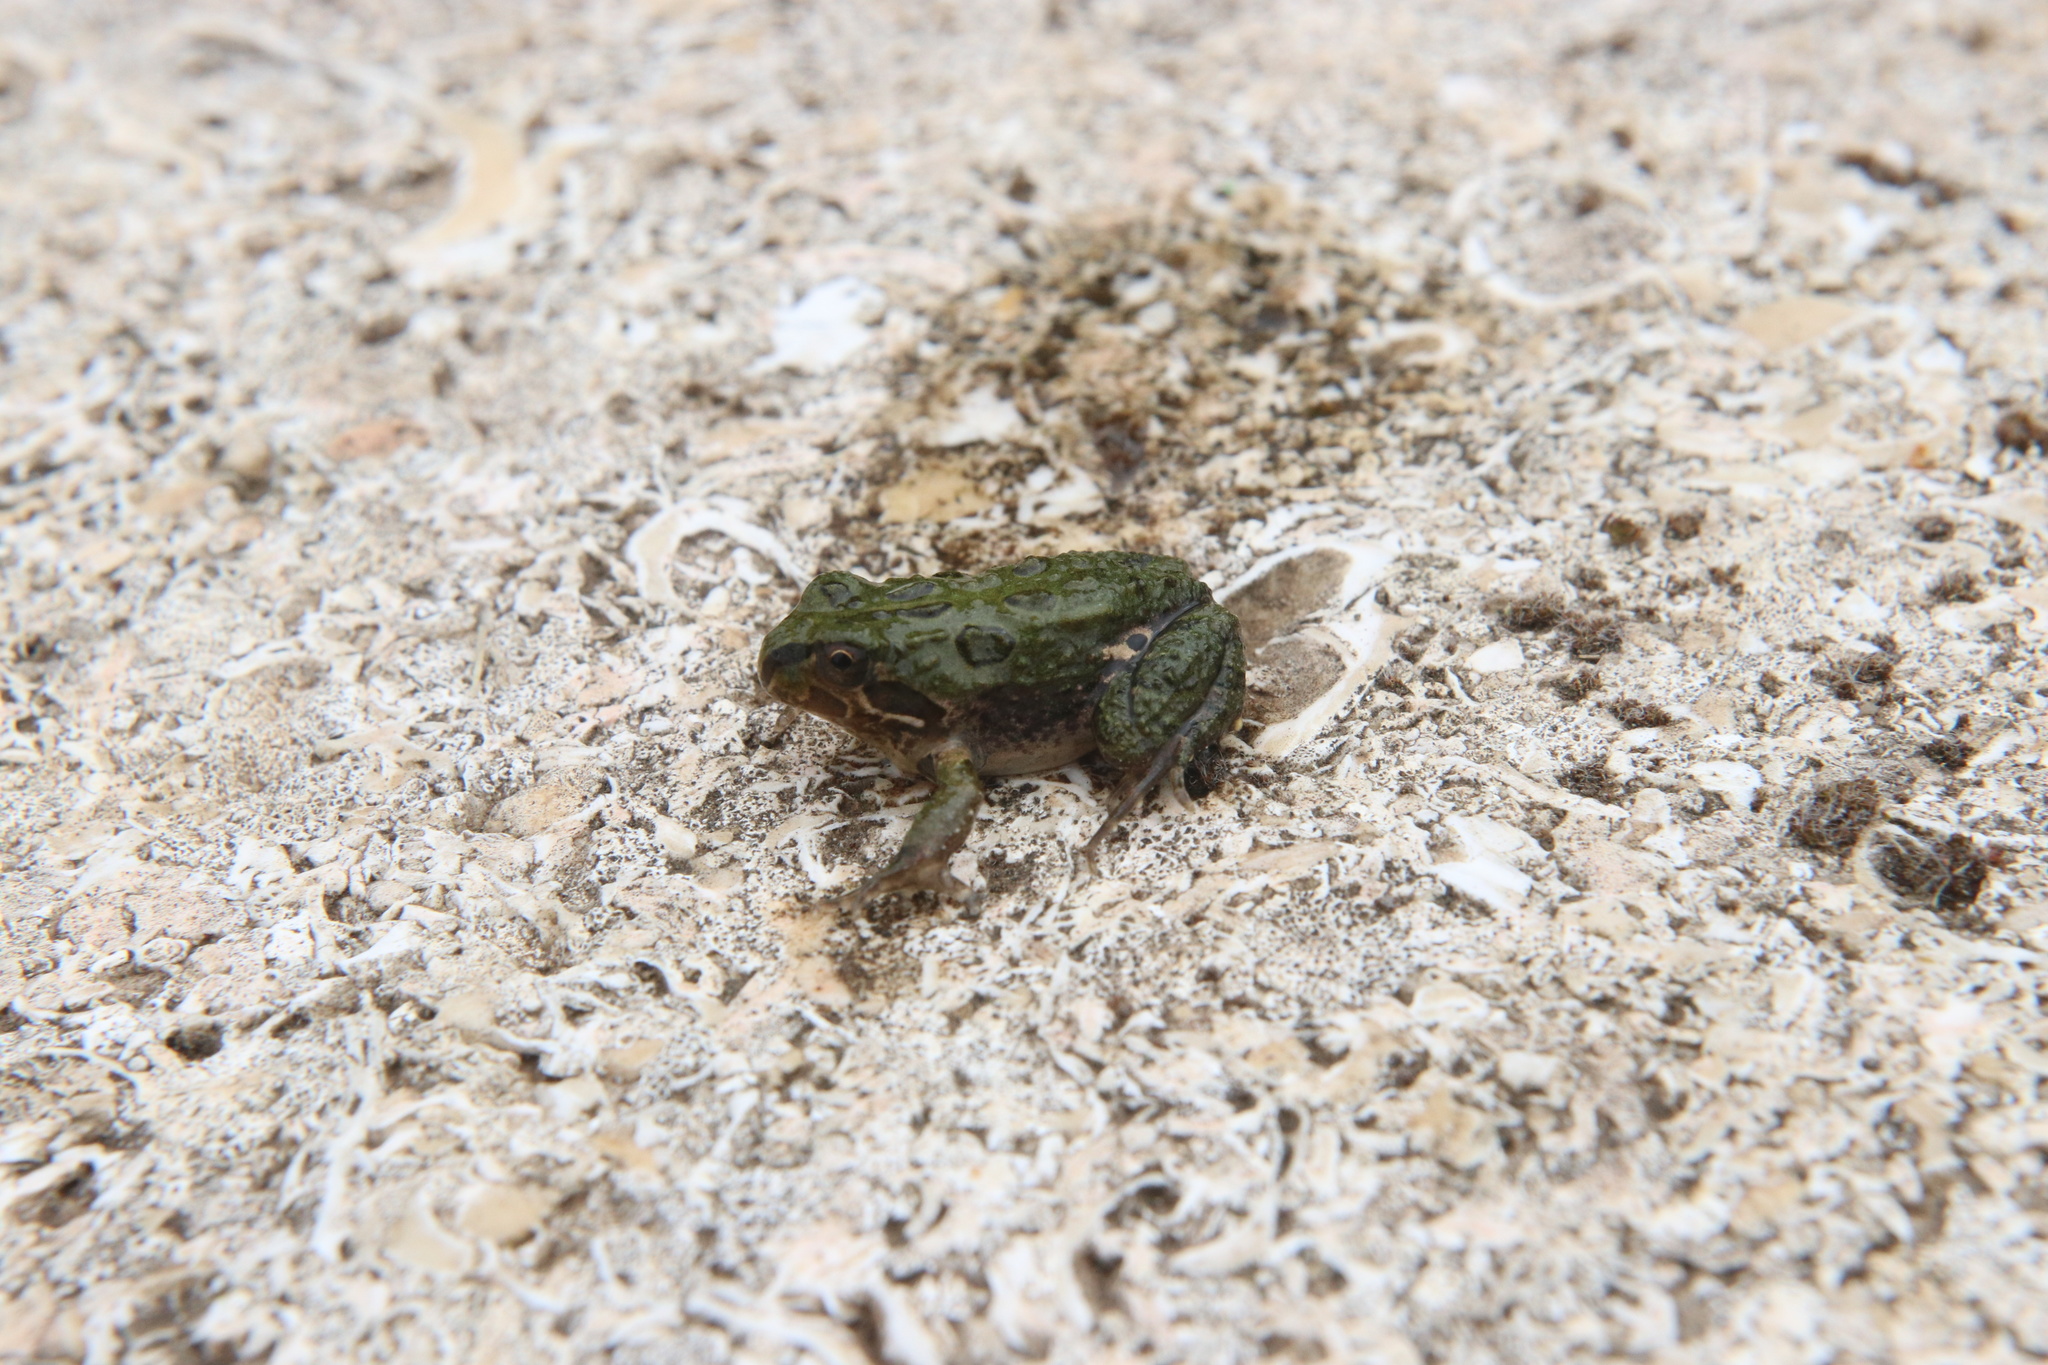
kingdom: Animalia
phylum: Chordata
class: Amphibia
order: Anura
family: Leptodactylidae
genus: Pleurodema
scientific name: Pleurodema thaul
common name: Chile four-eyed frog
